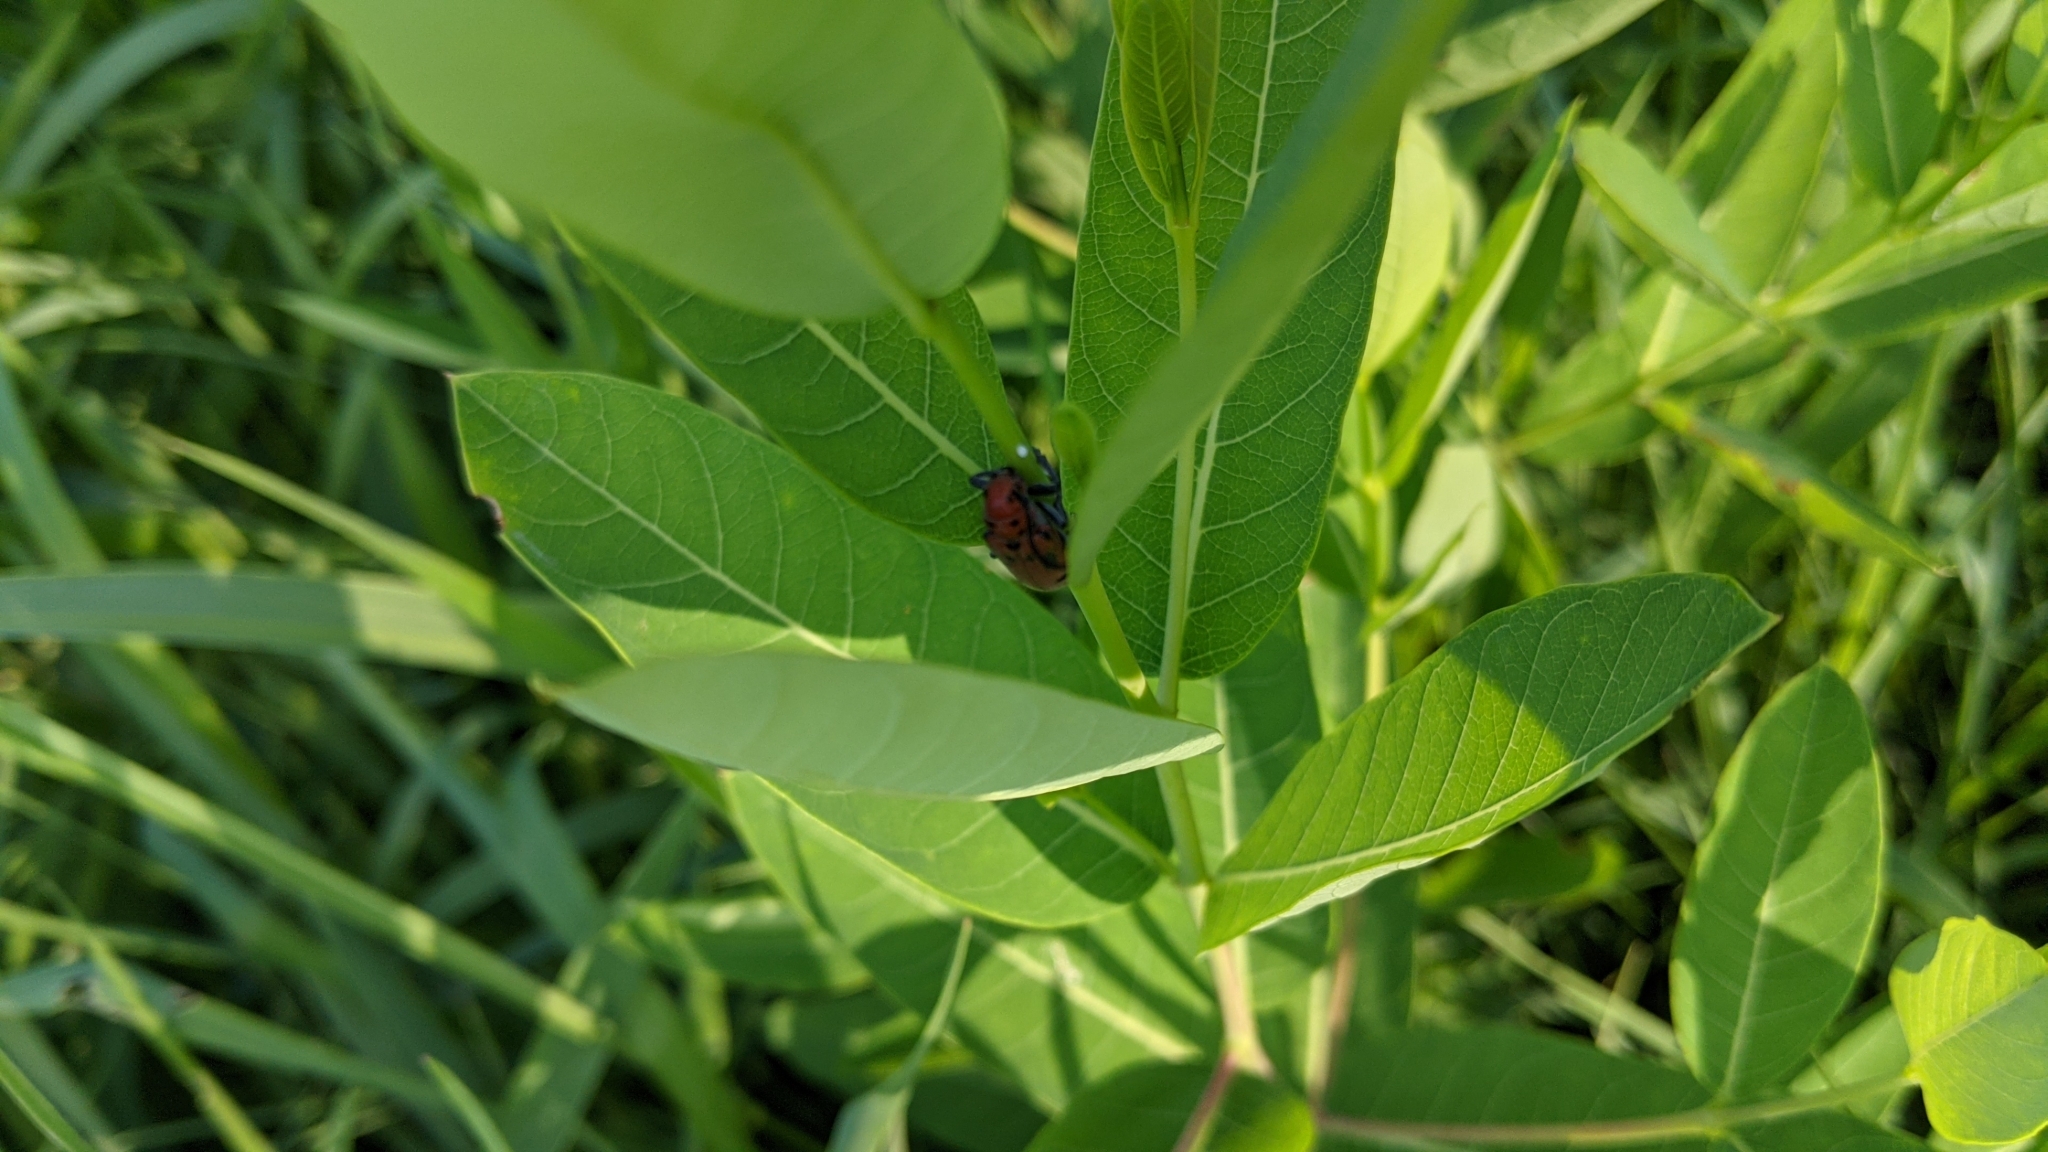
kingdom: Animalia
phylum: Arthropoda
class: Insecta
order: Coleoptera
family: Cerambycidae
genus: Tetraopes
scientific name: Tetraopes tetrophthalmus
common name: Red milkweed beetle
